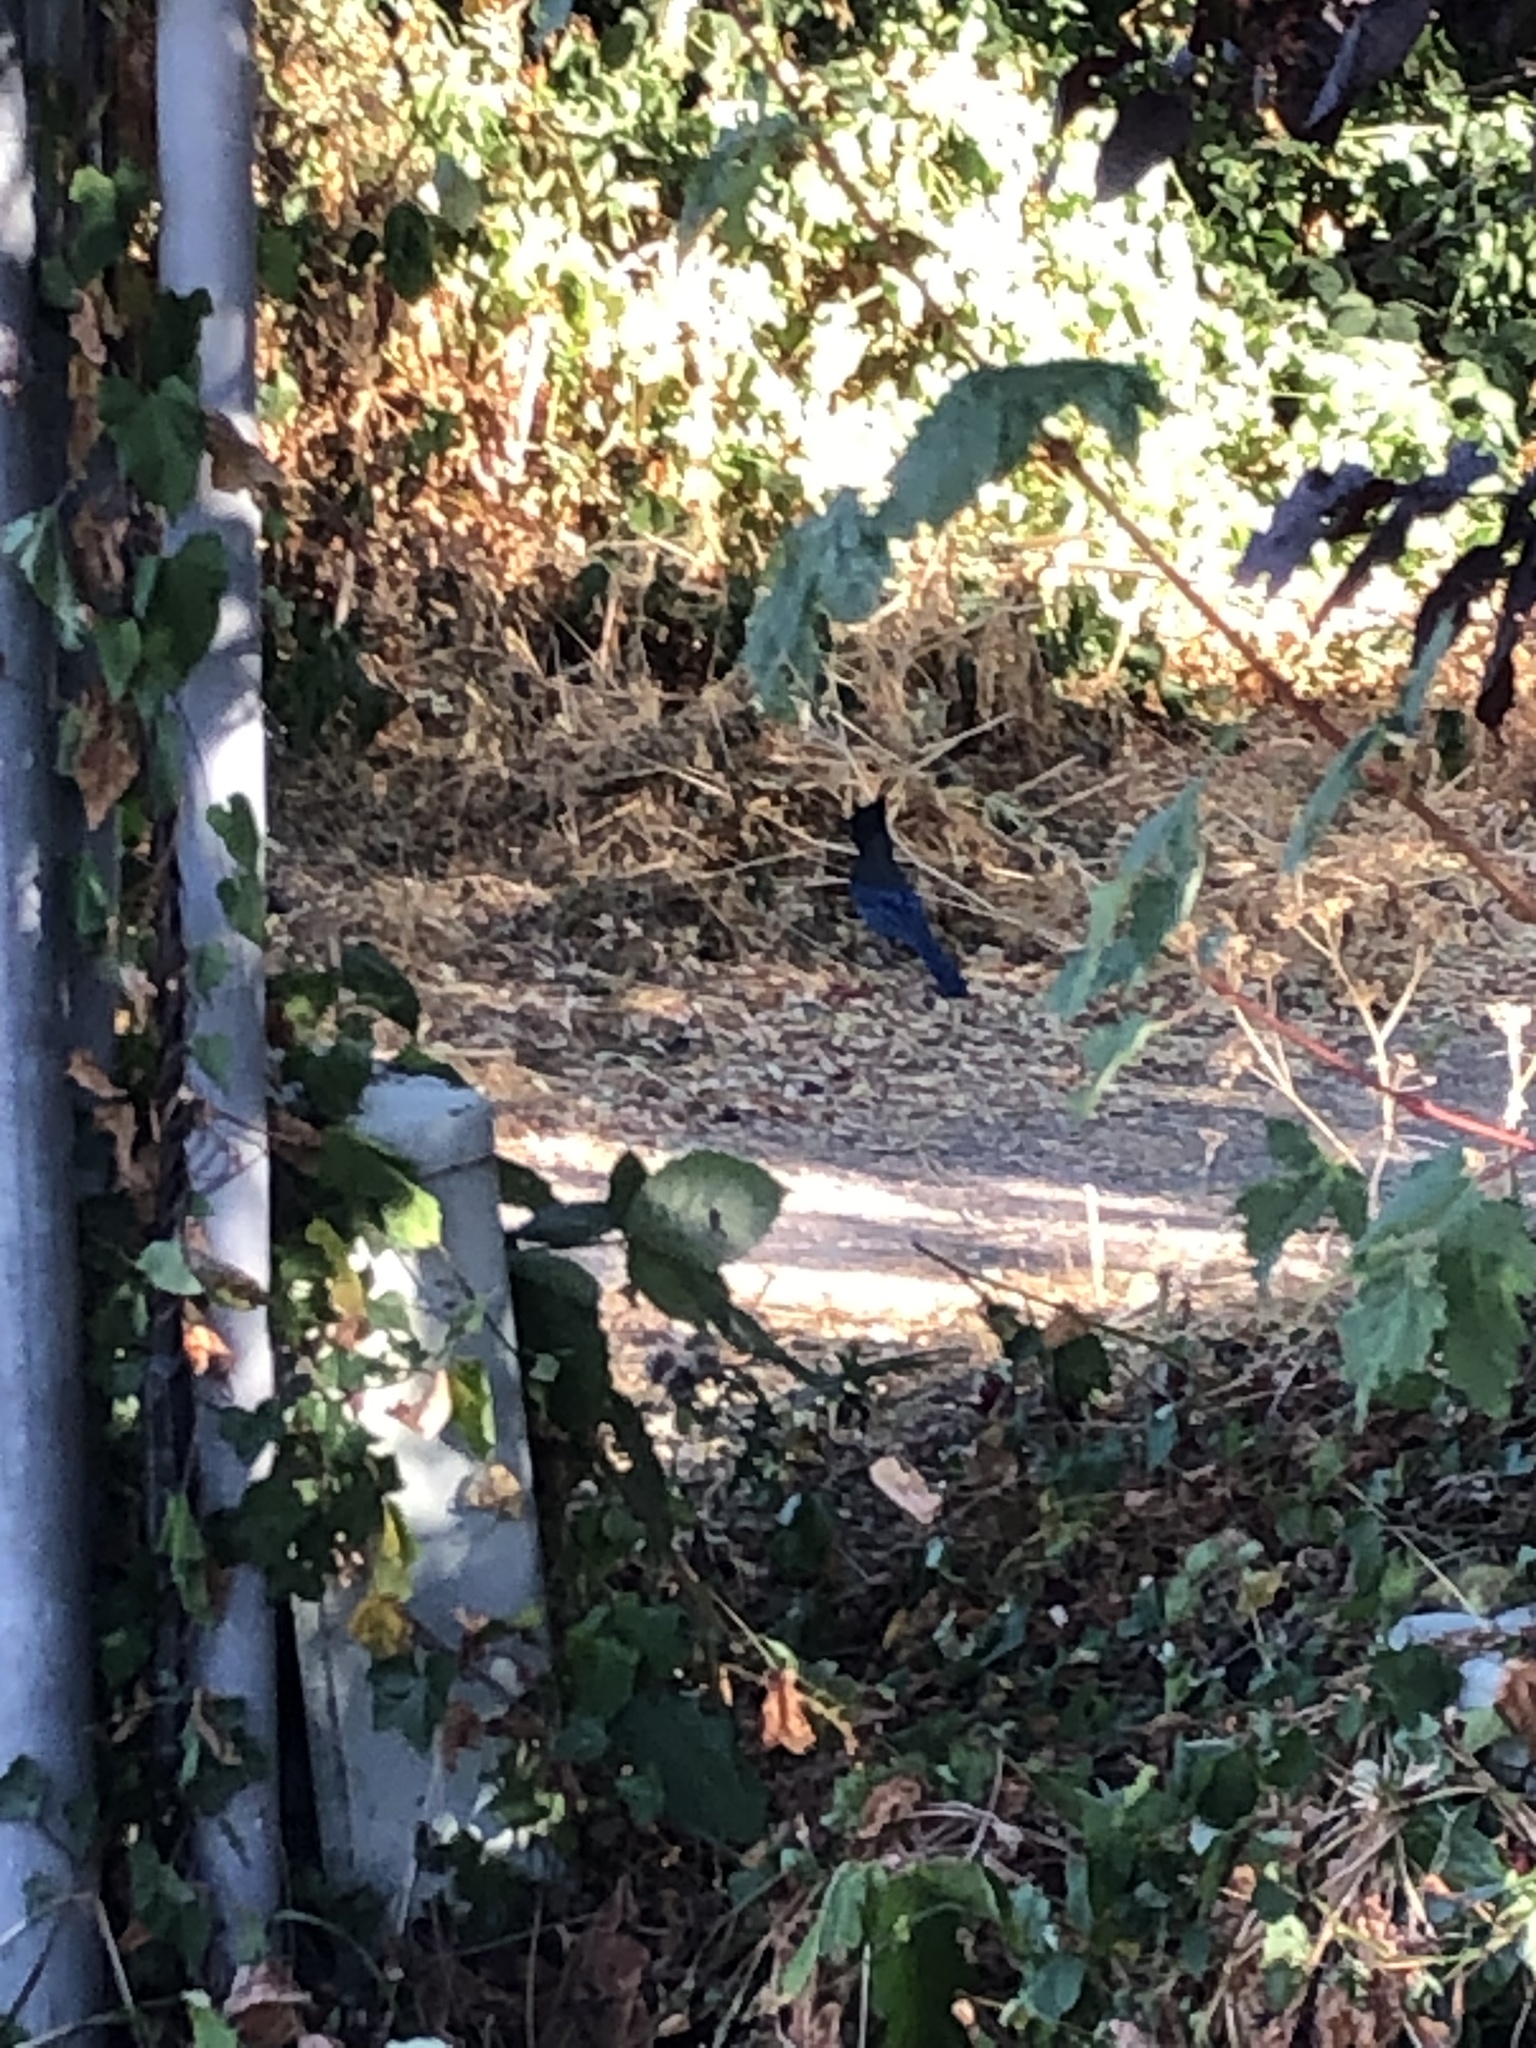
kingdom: Animalia
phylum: Chordata
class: Aves
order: Passeriformes
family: Corvidae
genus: Cyanocitta
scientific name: Cyanocitta stelleri
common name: Steller's jay
